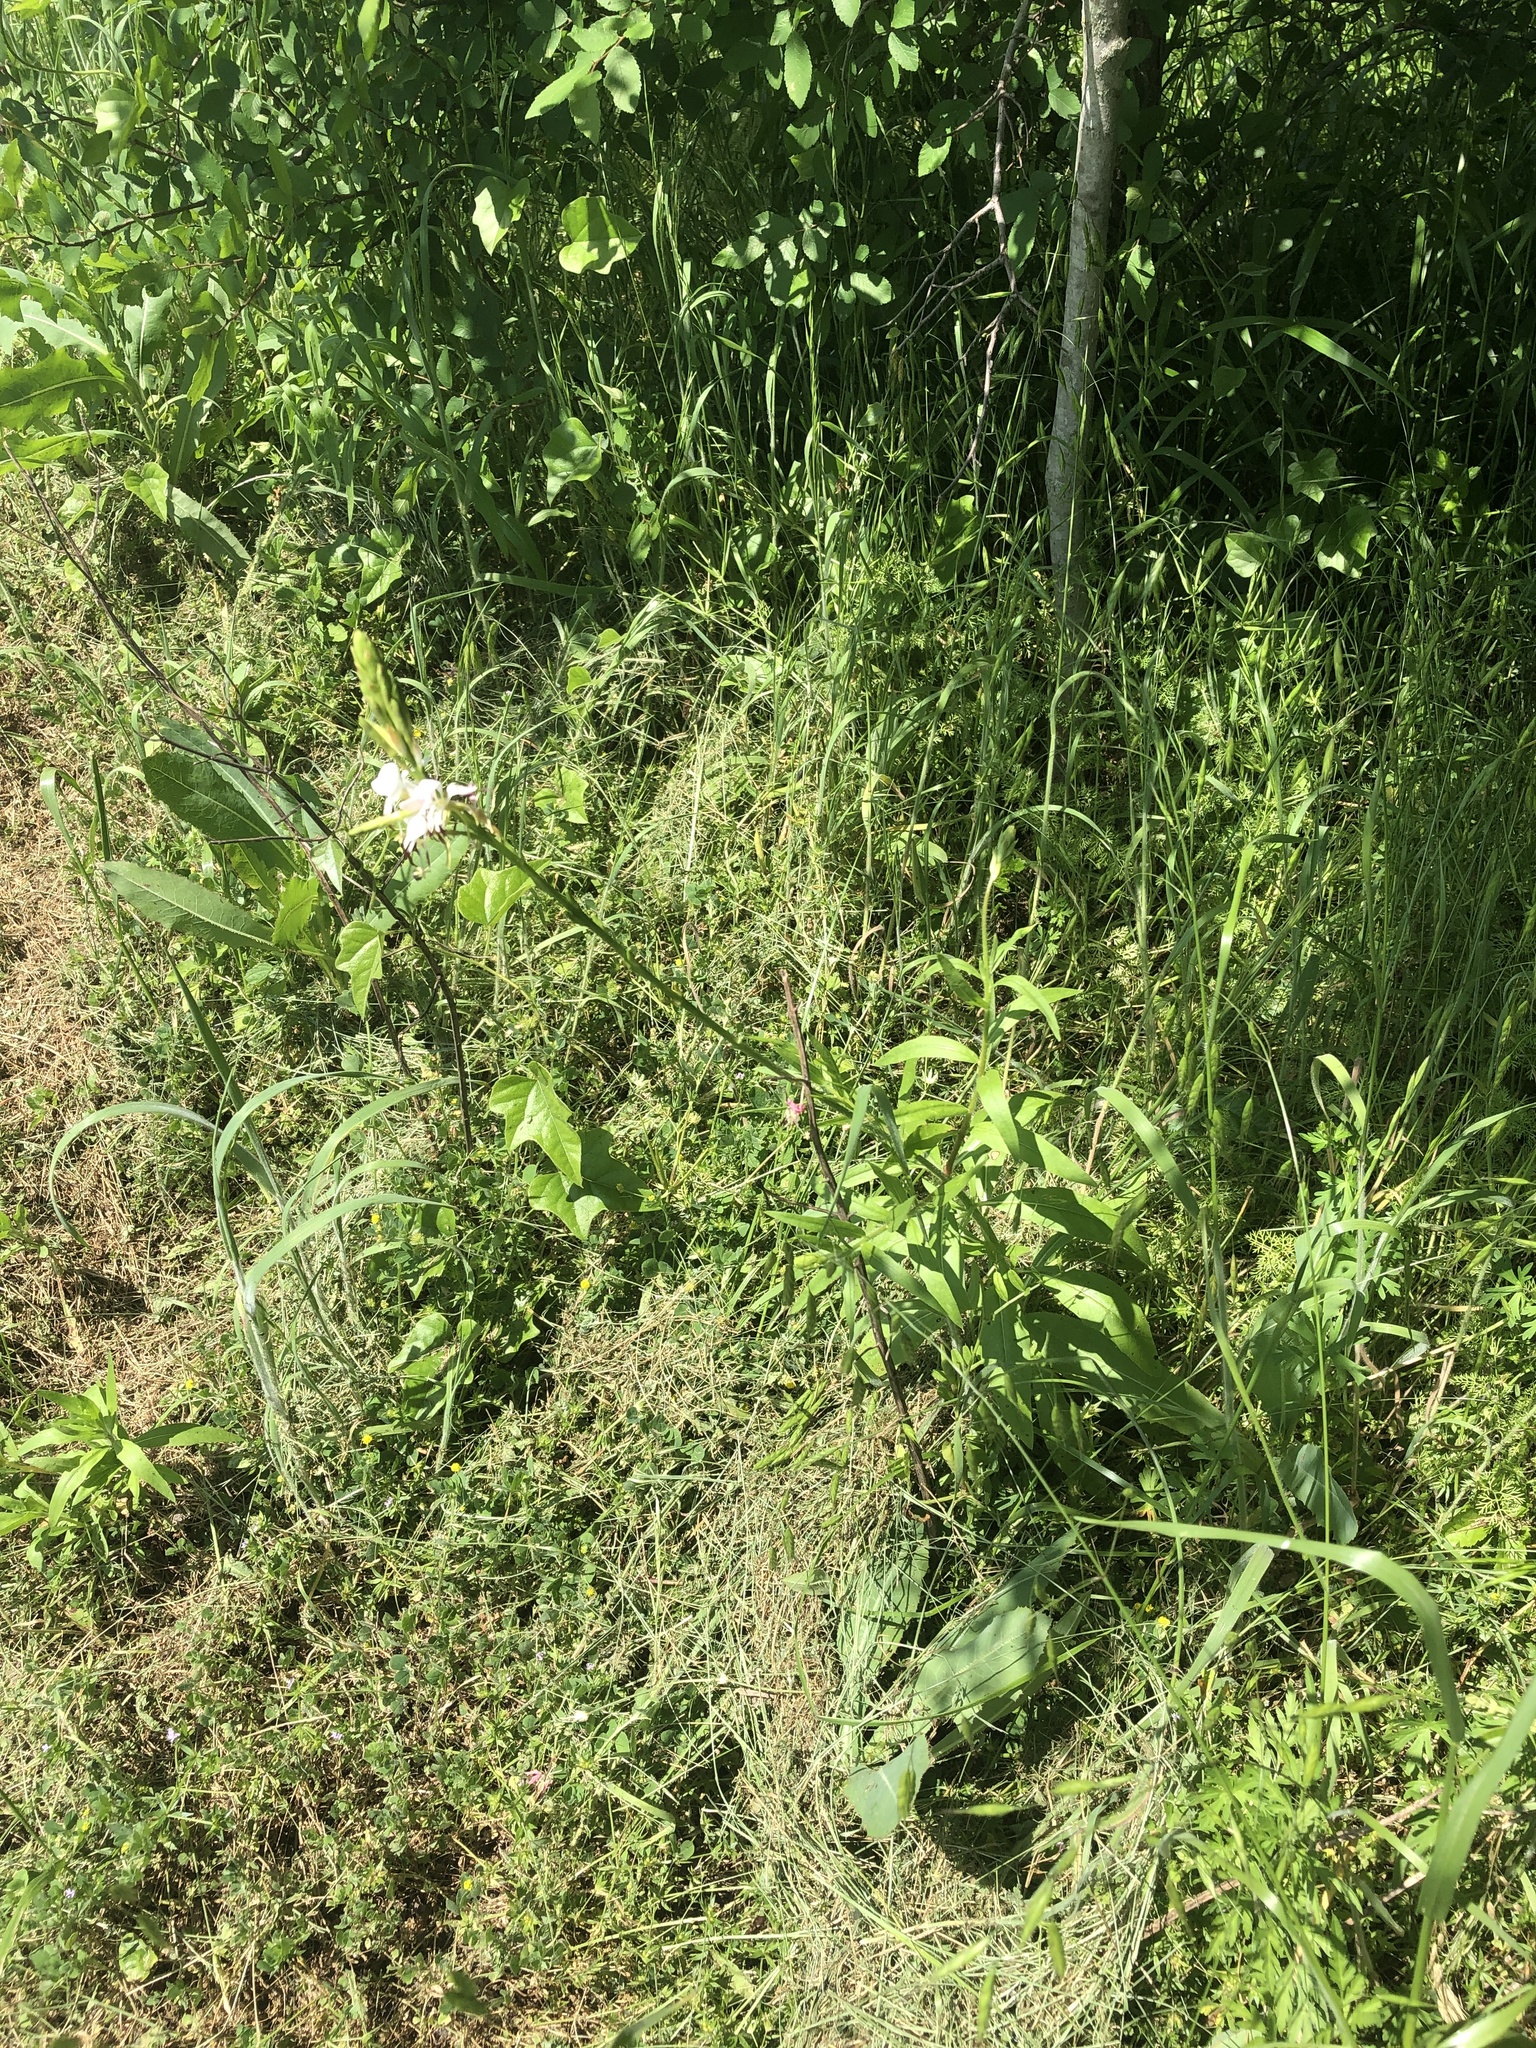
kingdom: Plantae
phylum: Tracheophyta
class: Magnoliopsida
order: Myrtales
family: Onagraceae
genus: Oenothera
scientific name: Oenothera suffulta
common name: Kisses
